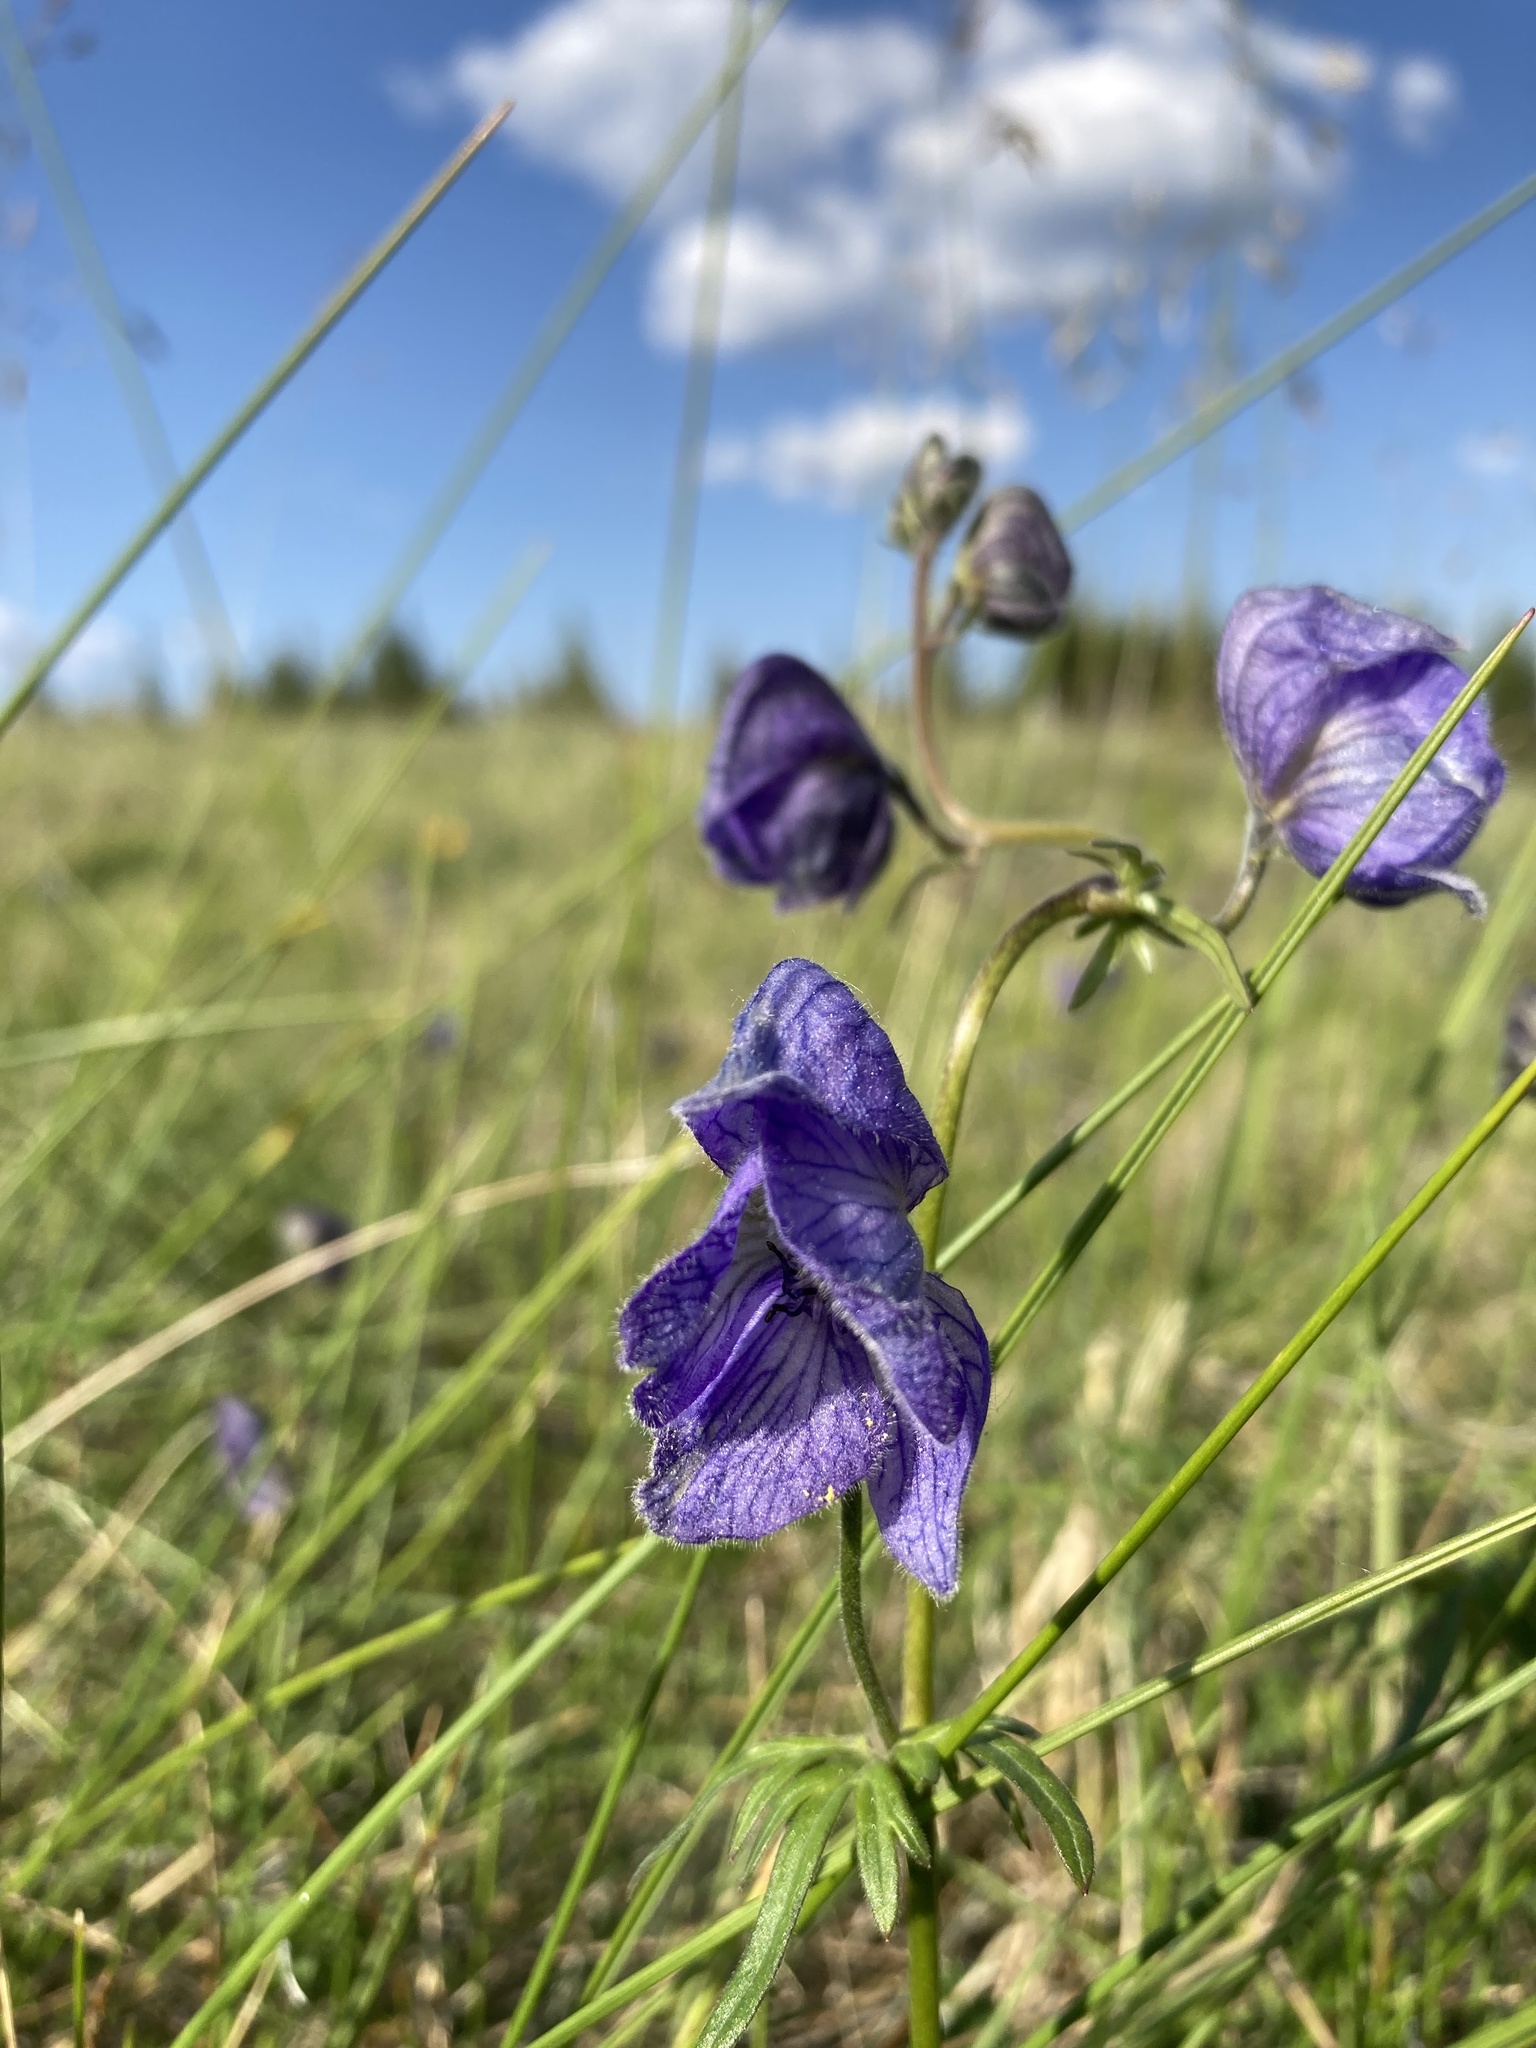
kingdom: Plantae
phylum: Tracheophyta
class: Magnoliopsida
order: Ranunculales
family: Ranunculaceae
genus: Aconitum
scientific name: Aconitum delphiniifolium
